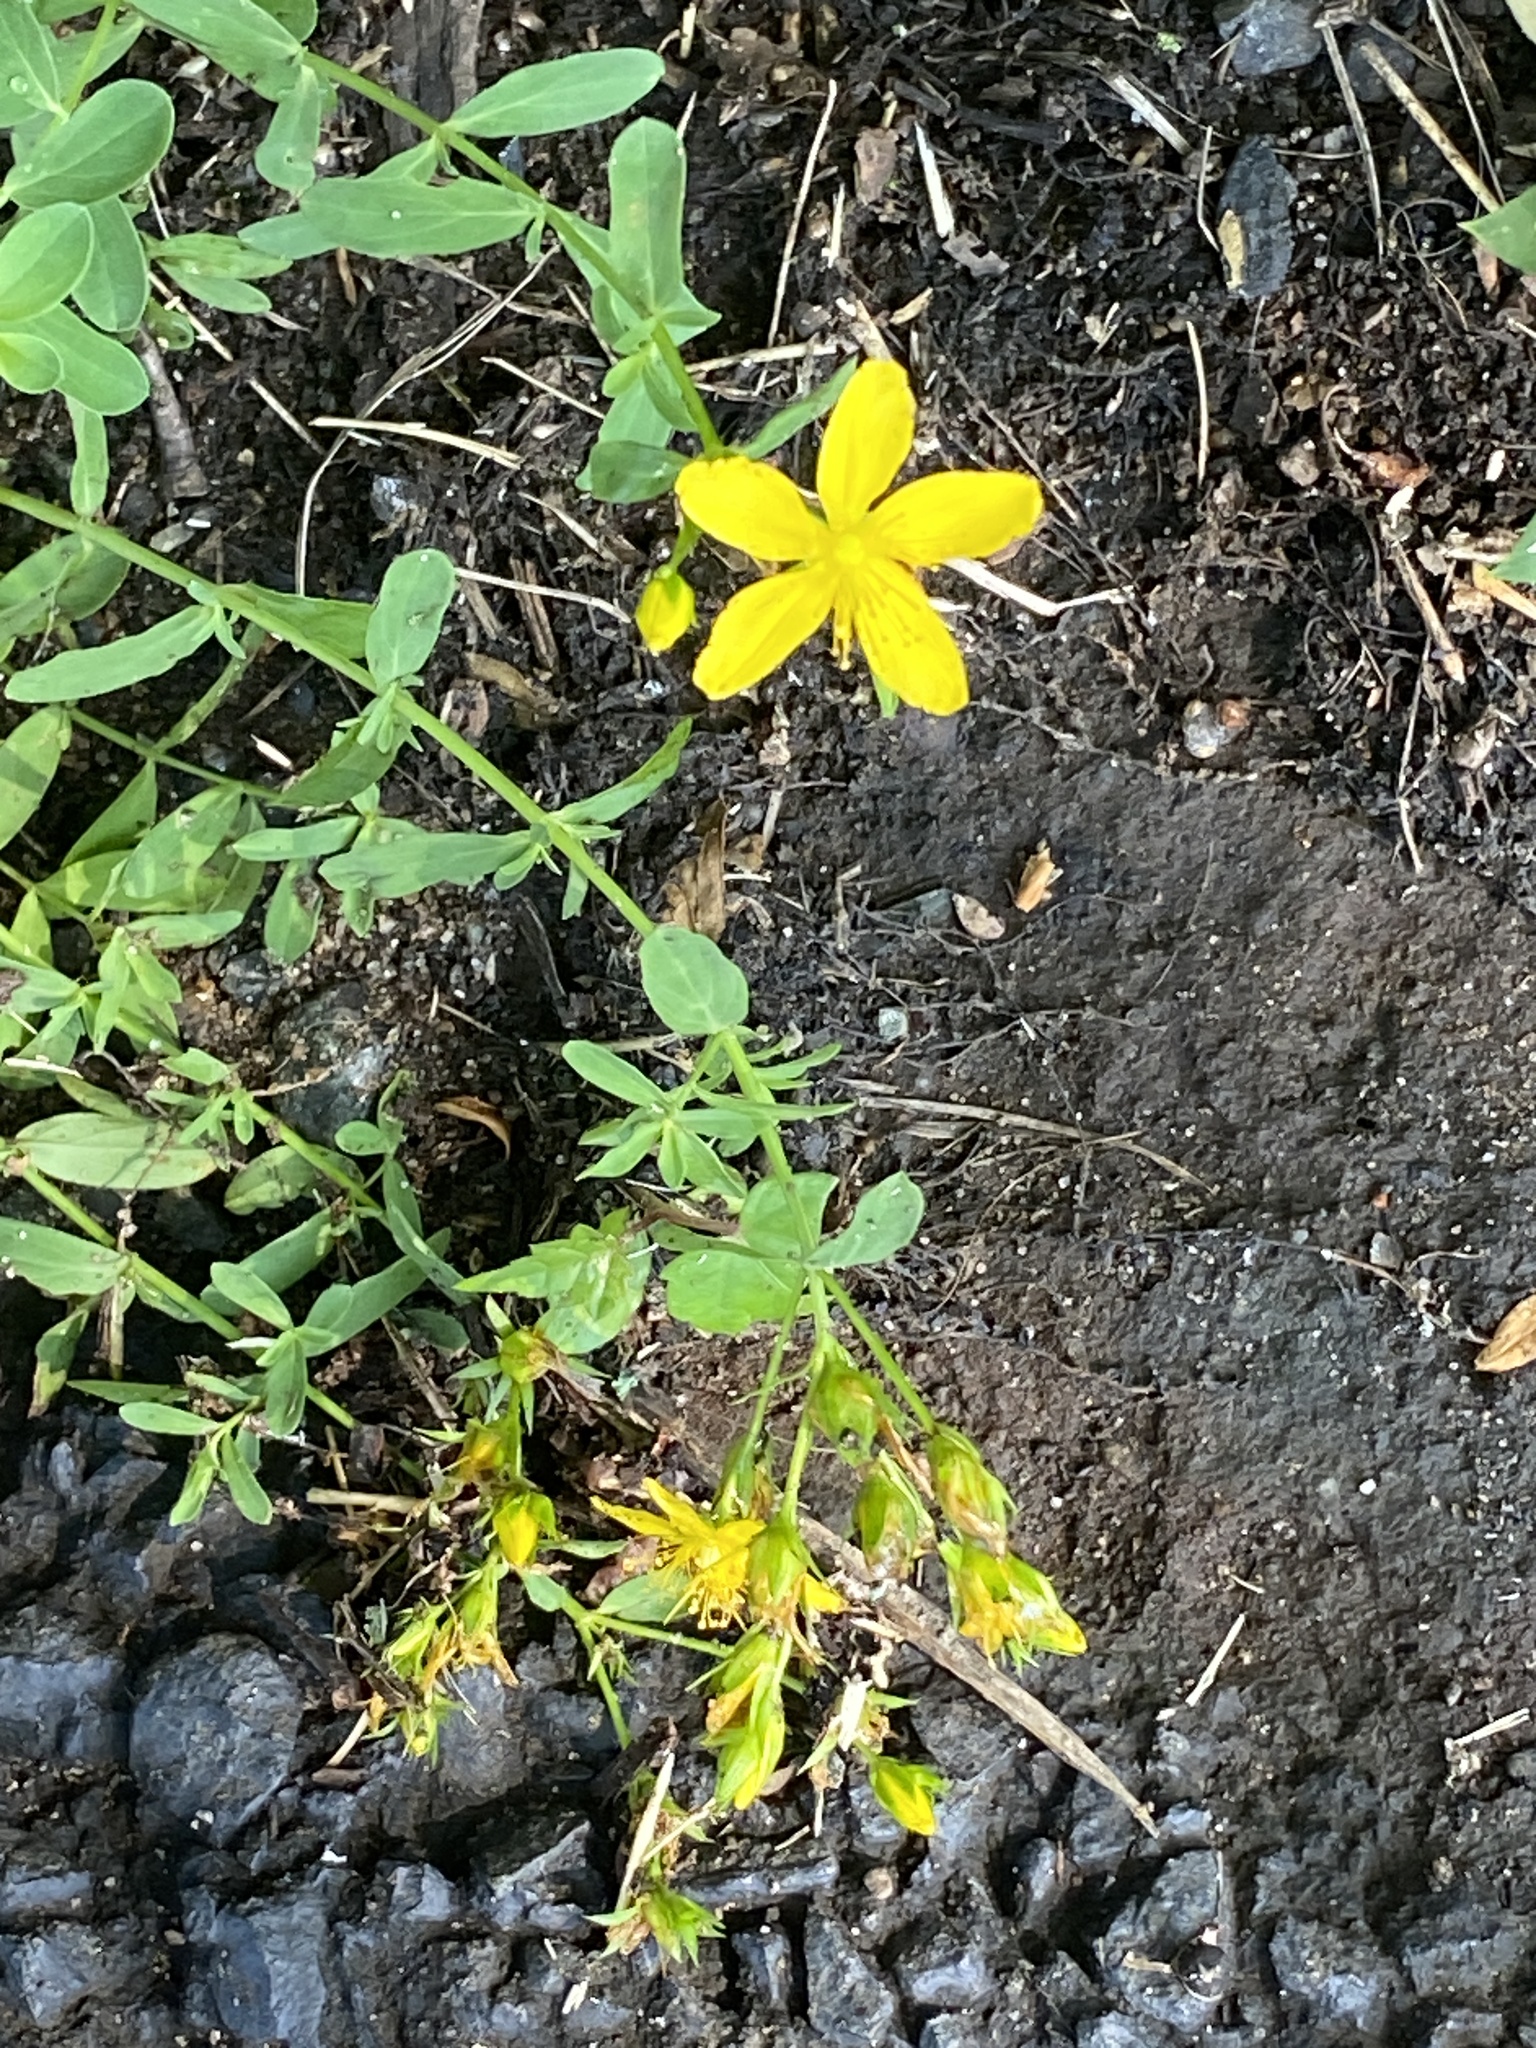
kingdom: Plantae
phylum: Tracheophyta
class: Magnoliopsida
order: Malpighiales
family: Hypericaceae
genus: Hypericum
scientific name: Hypericum perforatum
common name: Common st. johnswort
